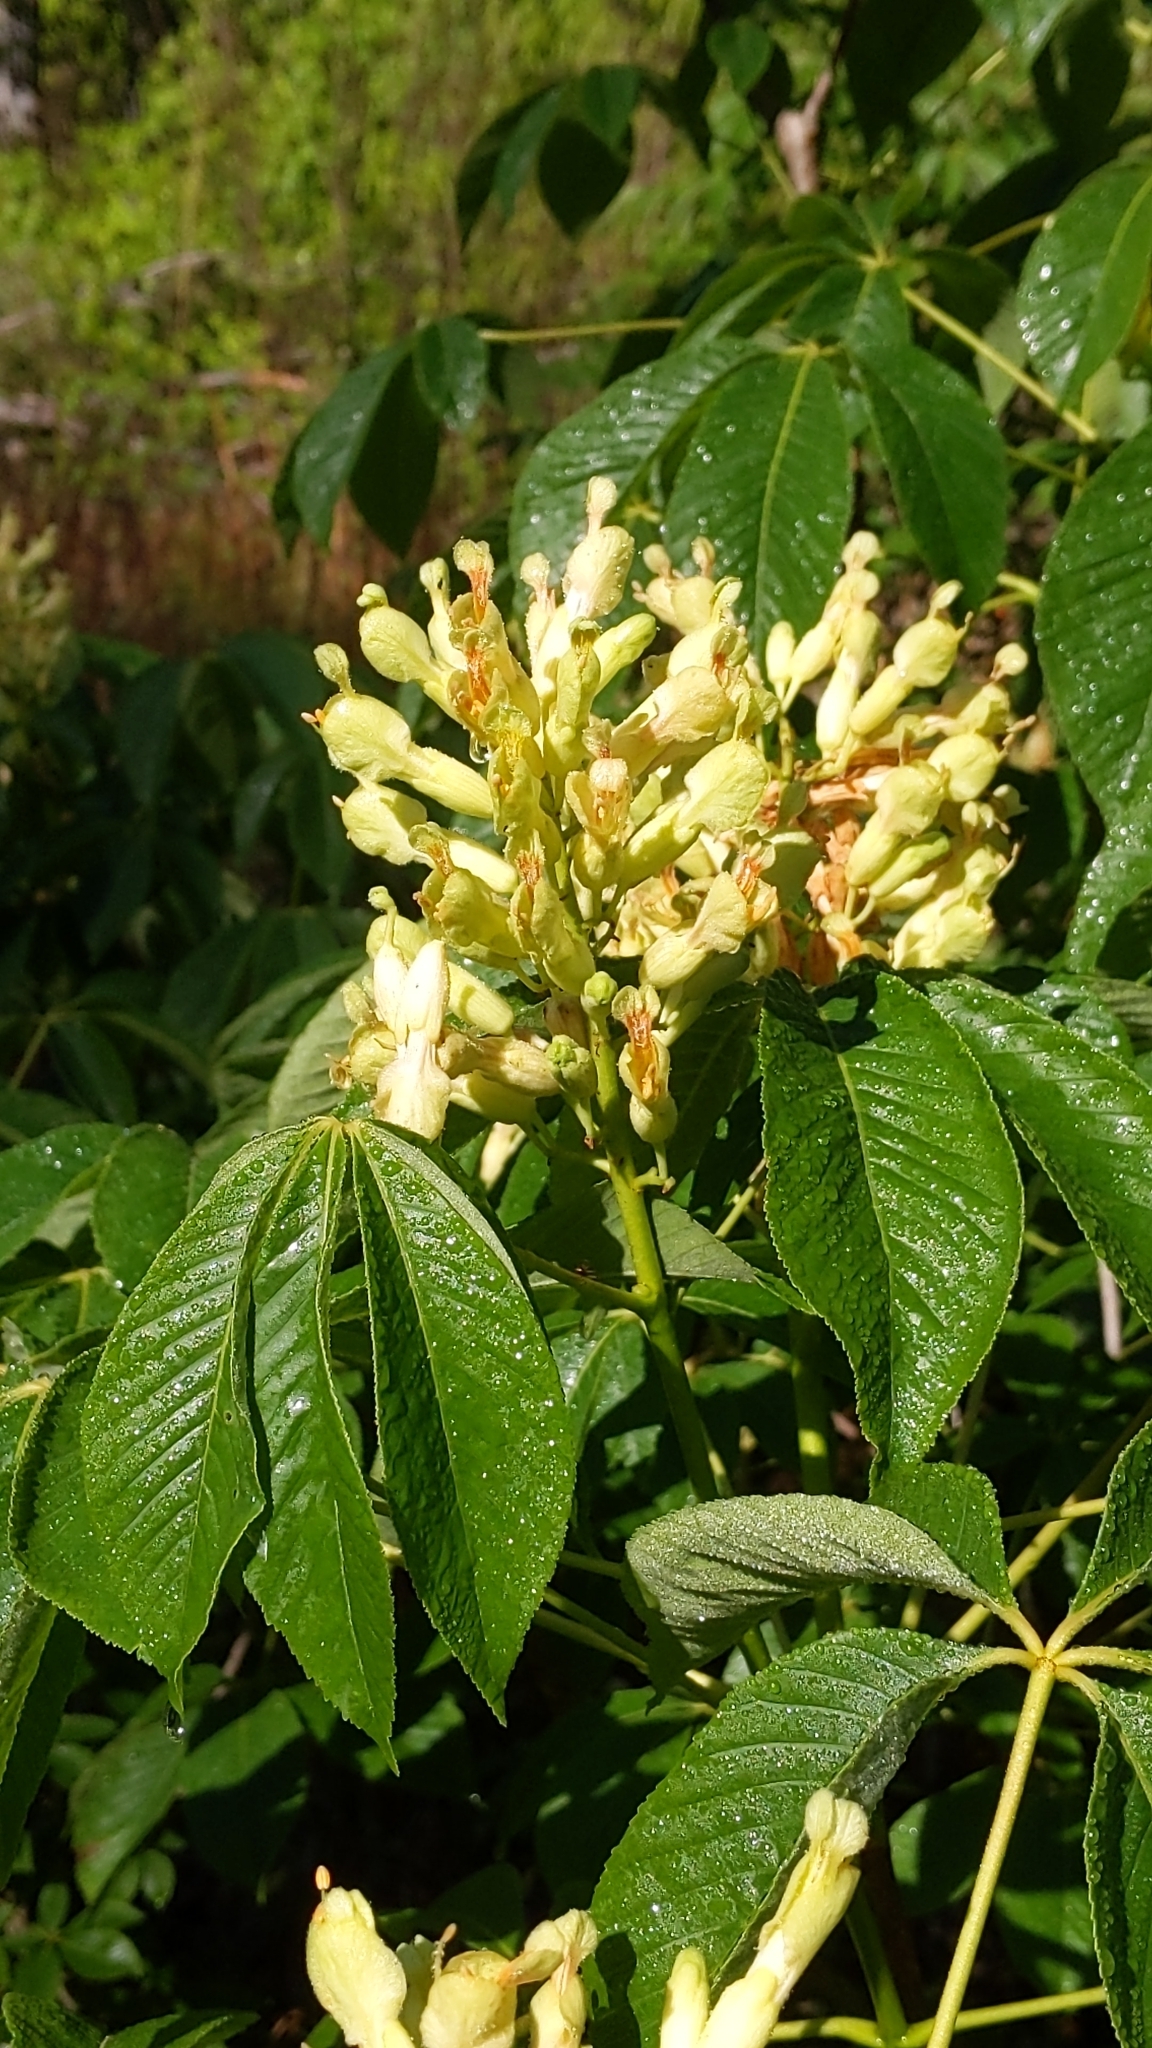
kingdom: Plantae
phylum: Tracheophyta
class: Magnoliopsida
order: Sapindales
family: Sapindaceae
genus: Aesculus
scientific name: Aesculus sylvatica
